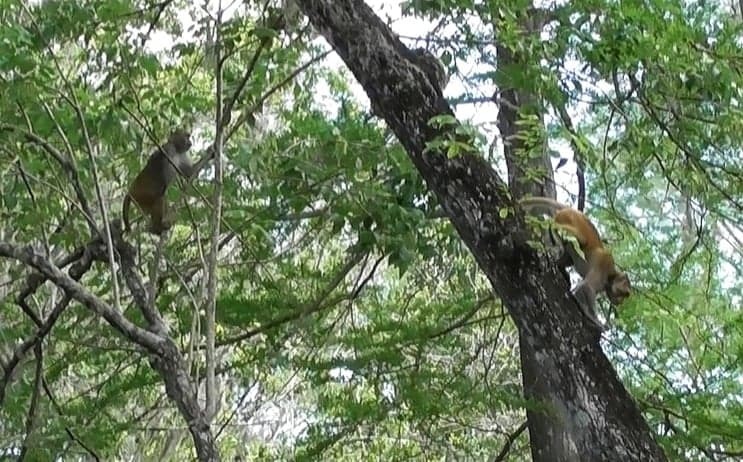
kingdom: Animalia
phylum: Chordata
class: Mammalia
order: Primates
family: Cercopithecidae
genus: Macaca
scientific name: Macaca mulatta
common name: Rhesus monkey
